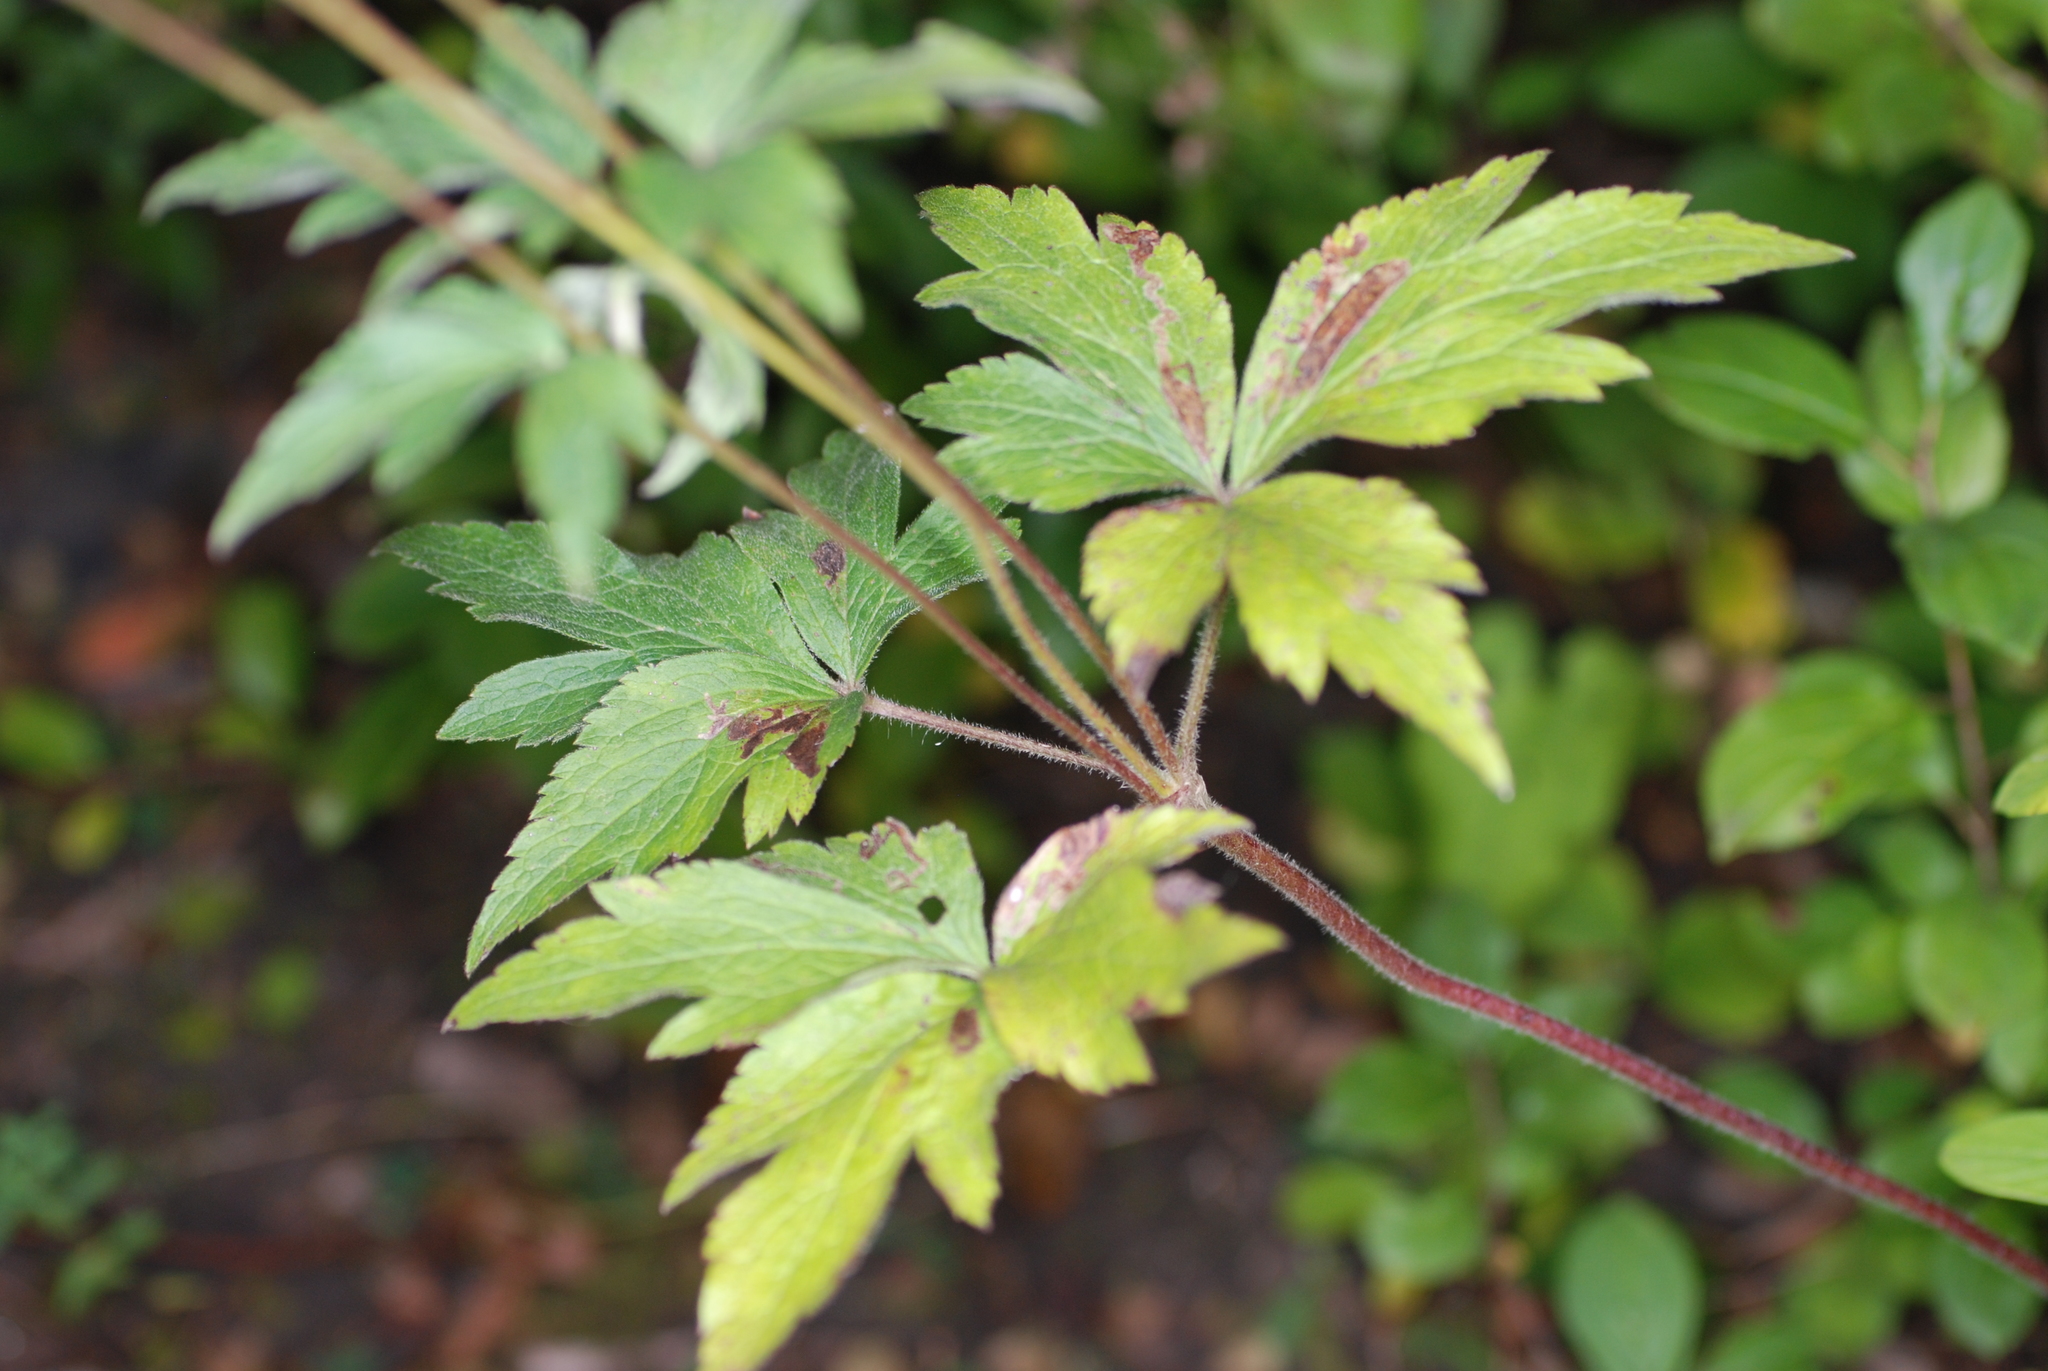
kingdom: Plantae
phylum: Tracheophyta
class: Magnoliopsida
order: Ranunculales
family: Ranunculaceae
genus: Anemone
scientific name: Anemone virginiana
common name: Tall anemone
